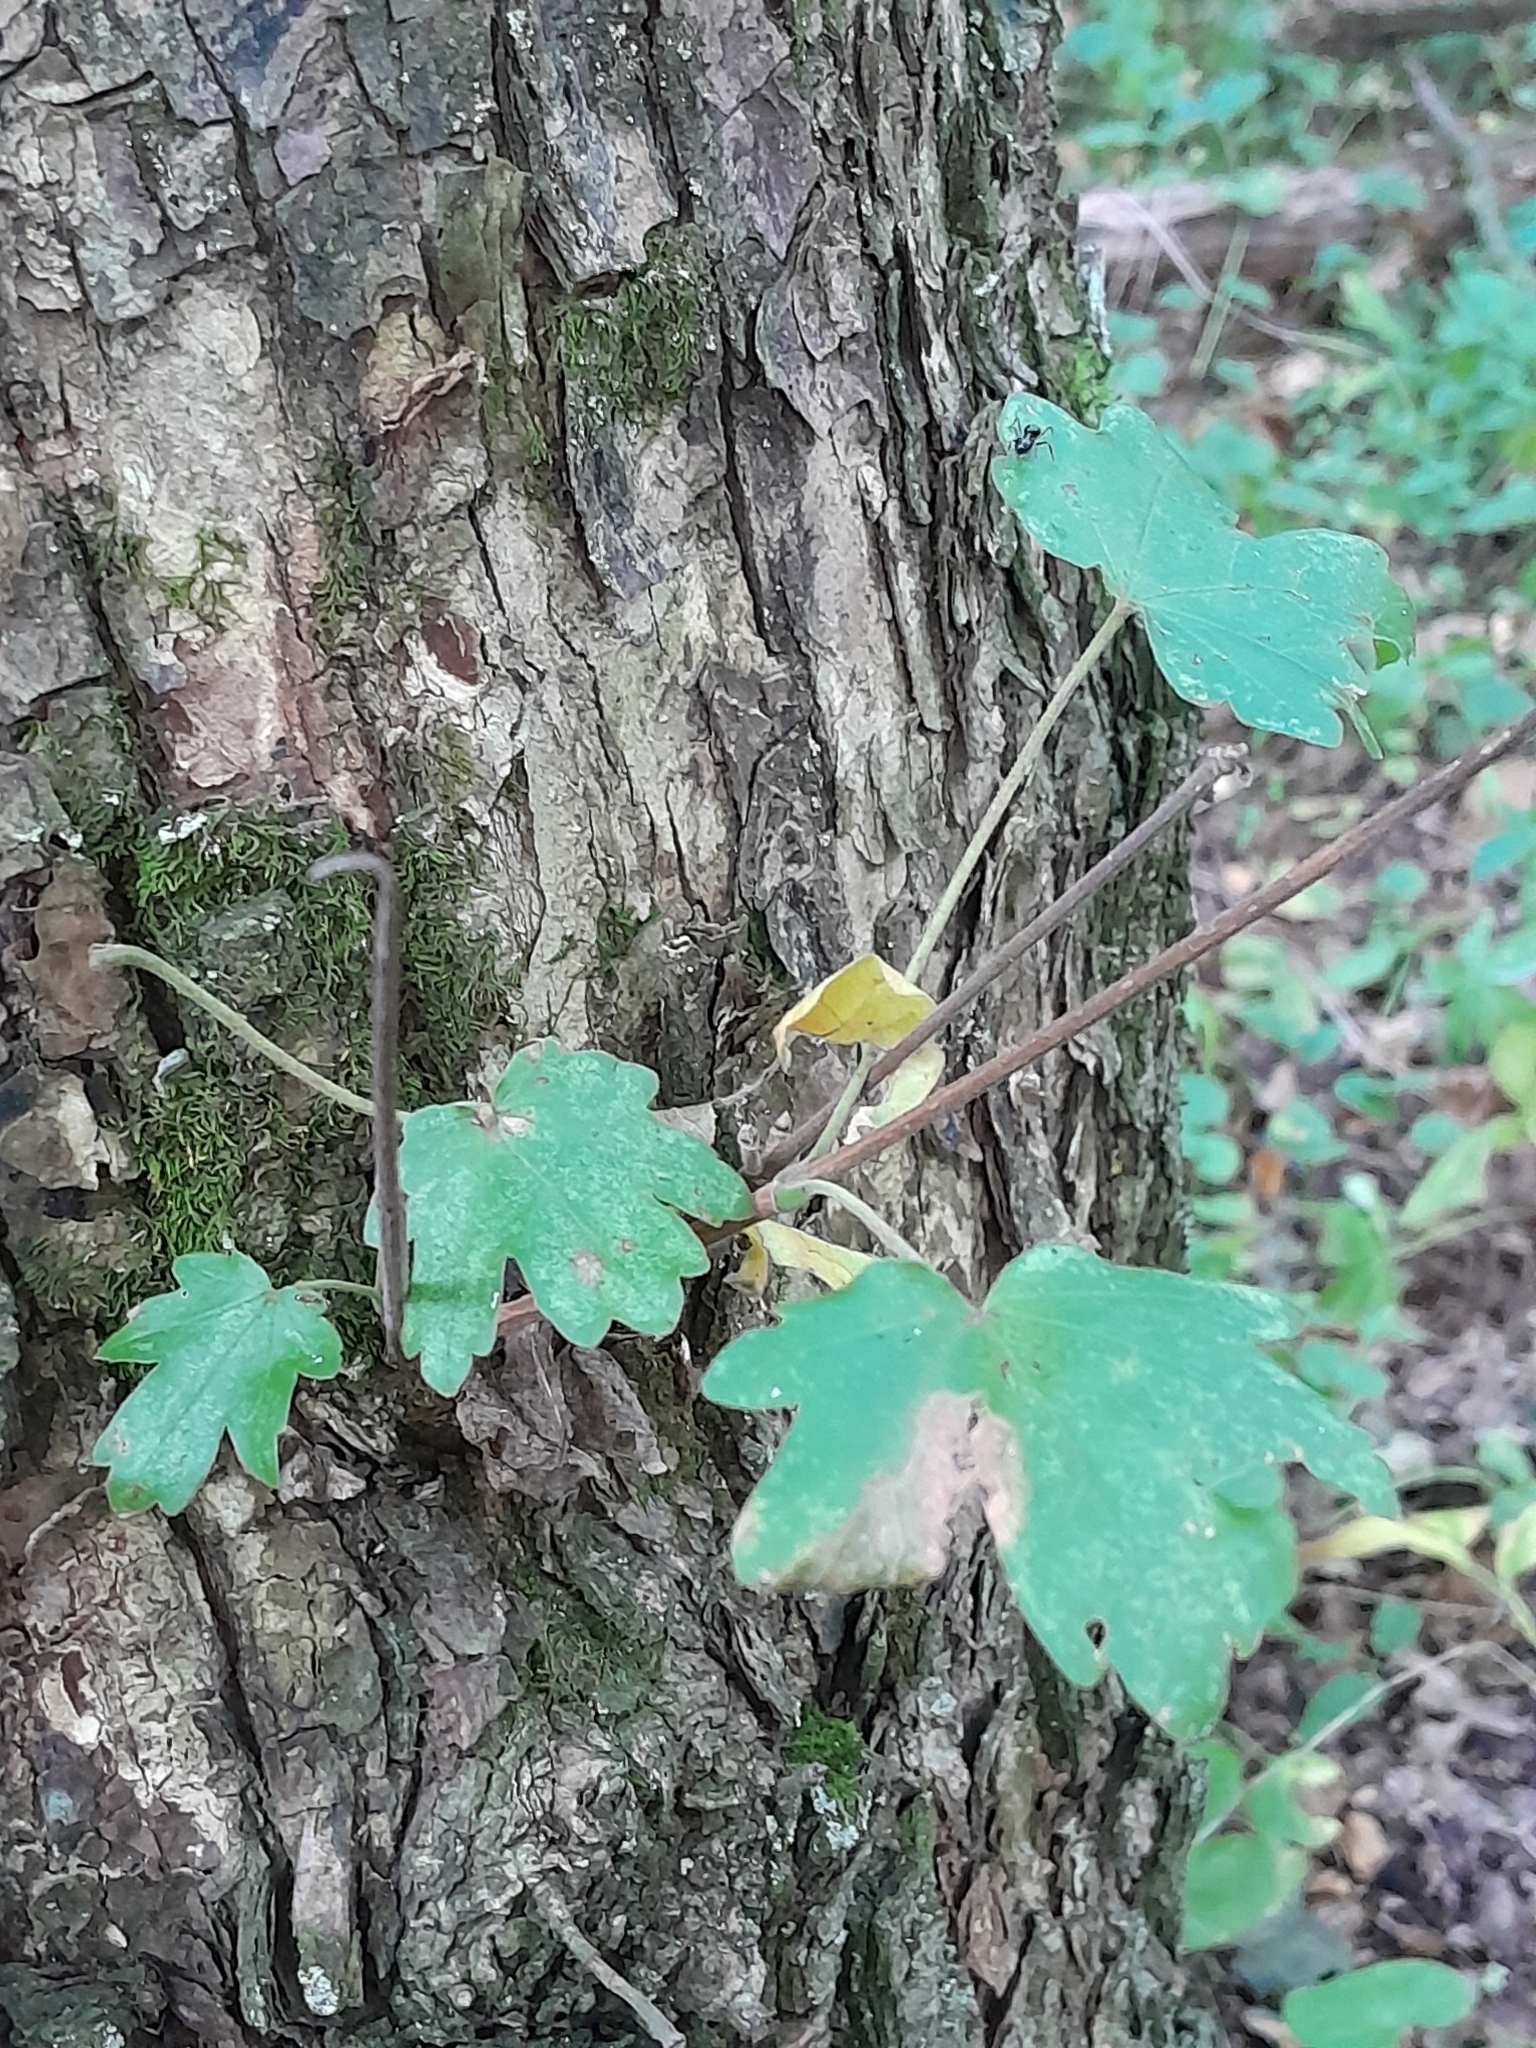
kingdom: Plantae
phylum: Tracheophyta
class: Magnoliopsida
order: Sapindales
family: Sapindaceae
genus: Acer
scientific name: Acer campestre
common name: Field maple
